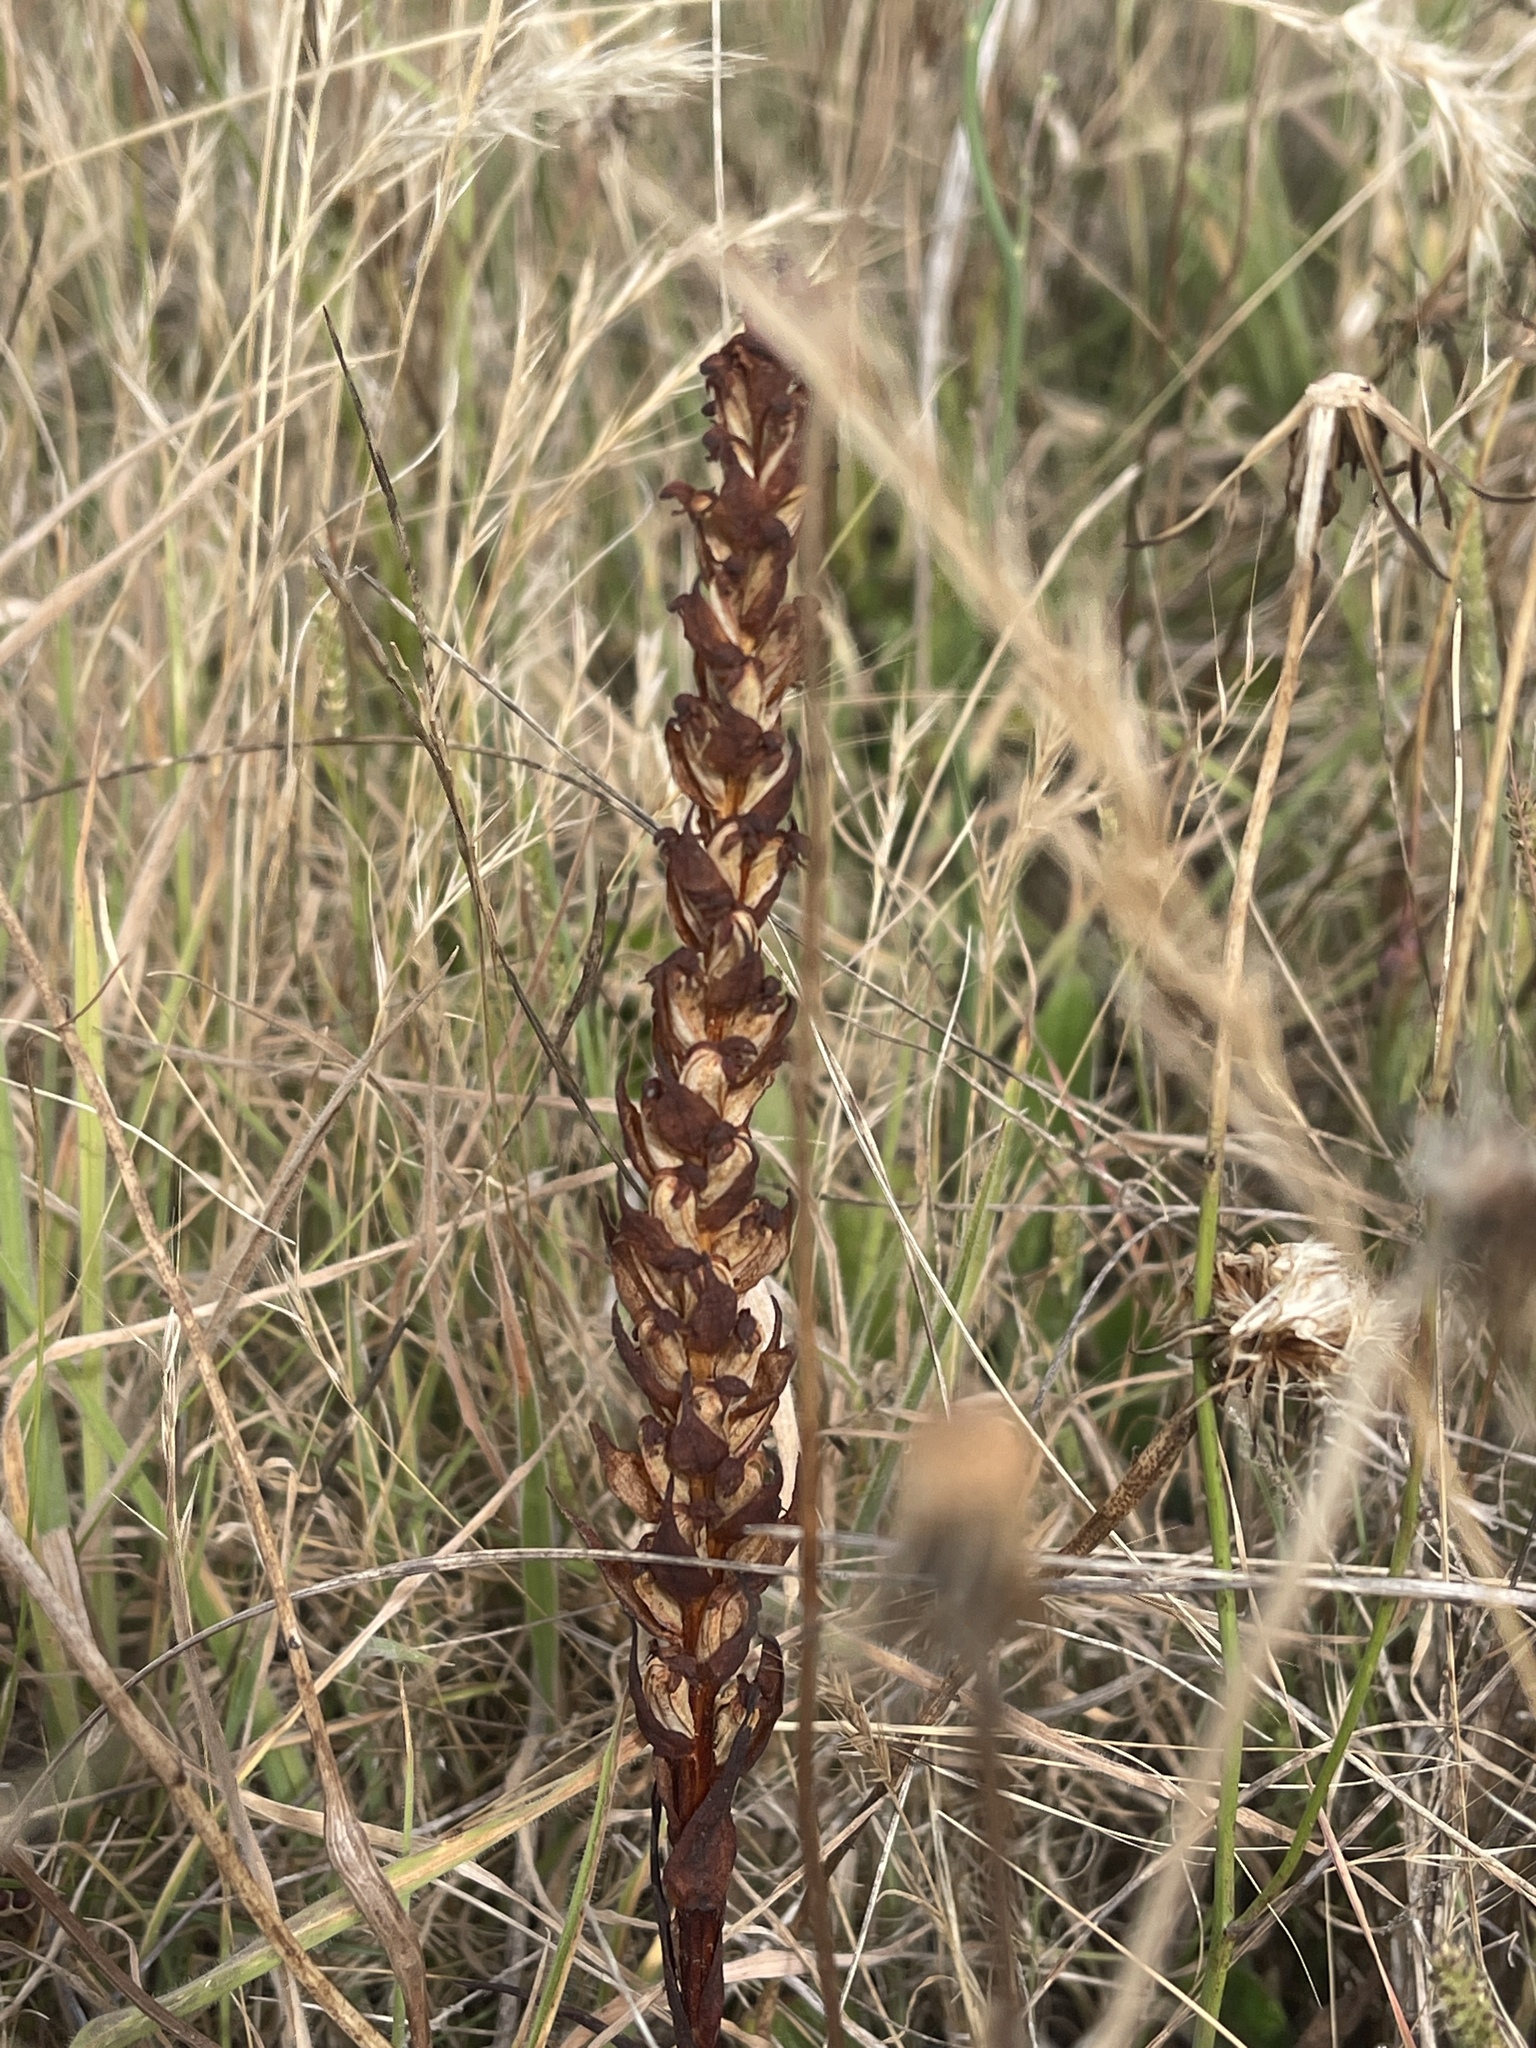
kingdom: Plantae
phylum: Tracheophyta
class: Liliopsida
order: Asparagales
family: Orchidaceae
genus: Disa
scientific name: Disa bracteata
